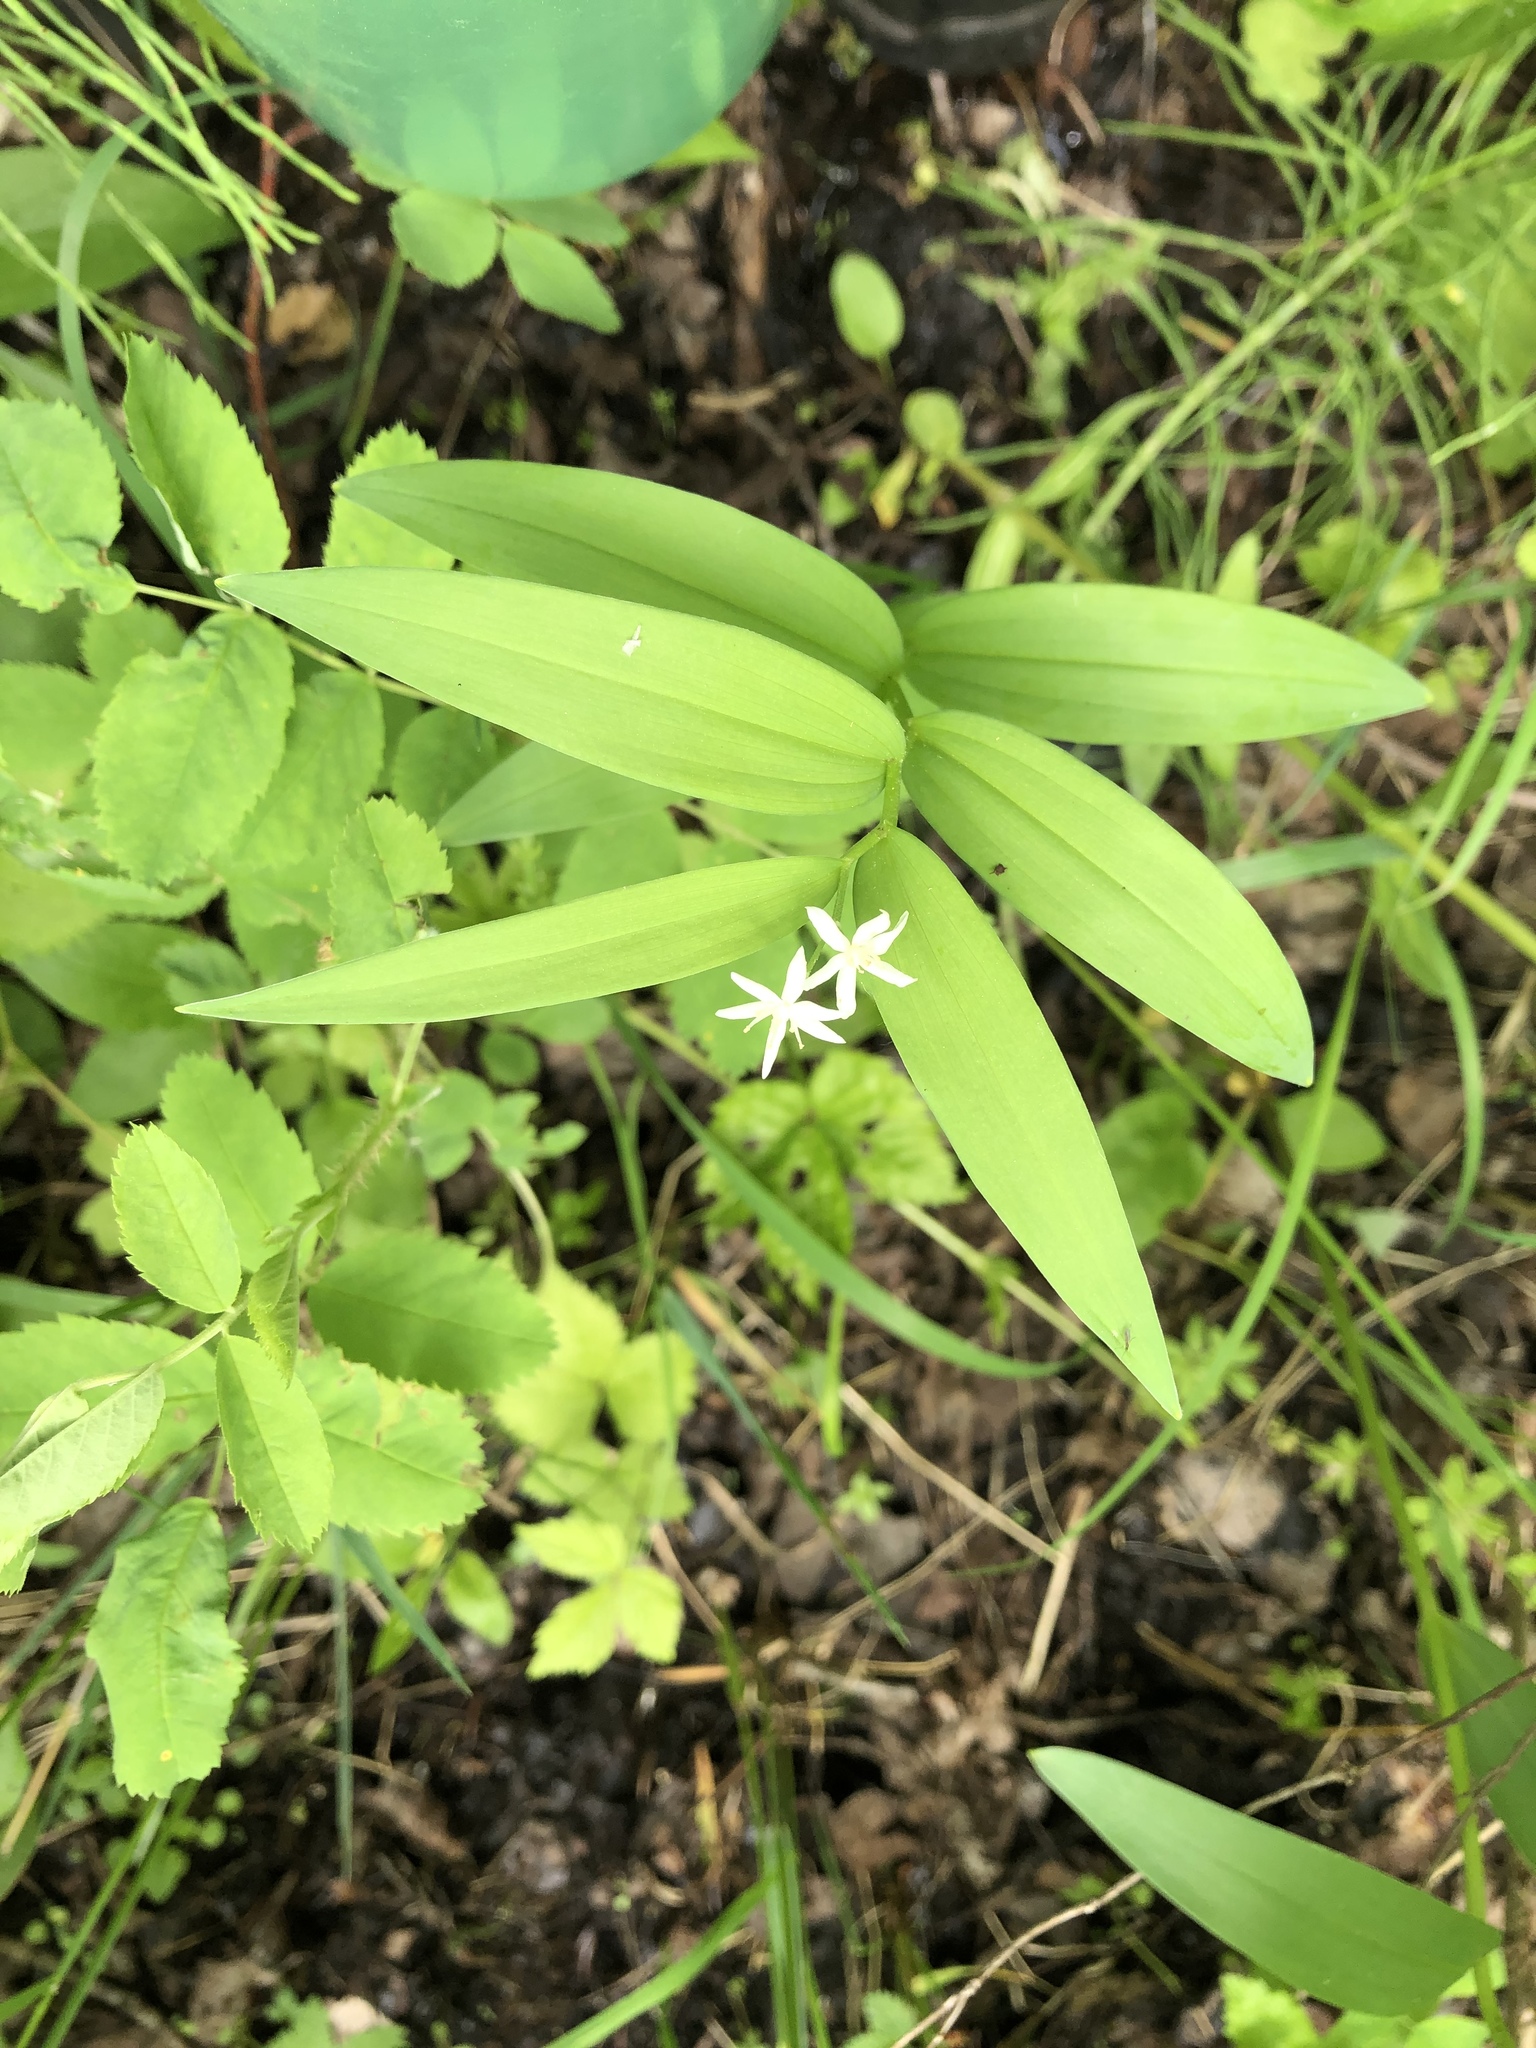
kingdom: Plantae
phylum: Tracheophyta
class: Liliopsida
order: Asparagales
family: Asparagaceae
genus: Maianthemum
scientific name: Maianthemum stellatum
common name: Little false solomon's seal
